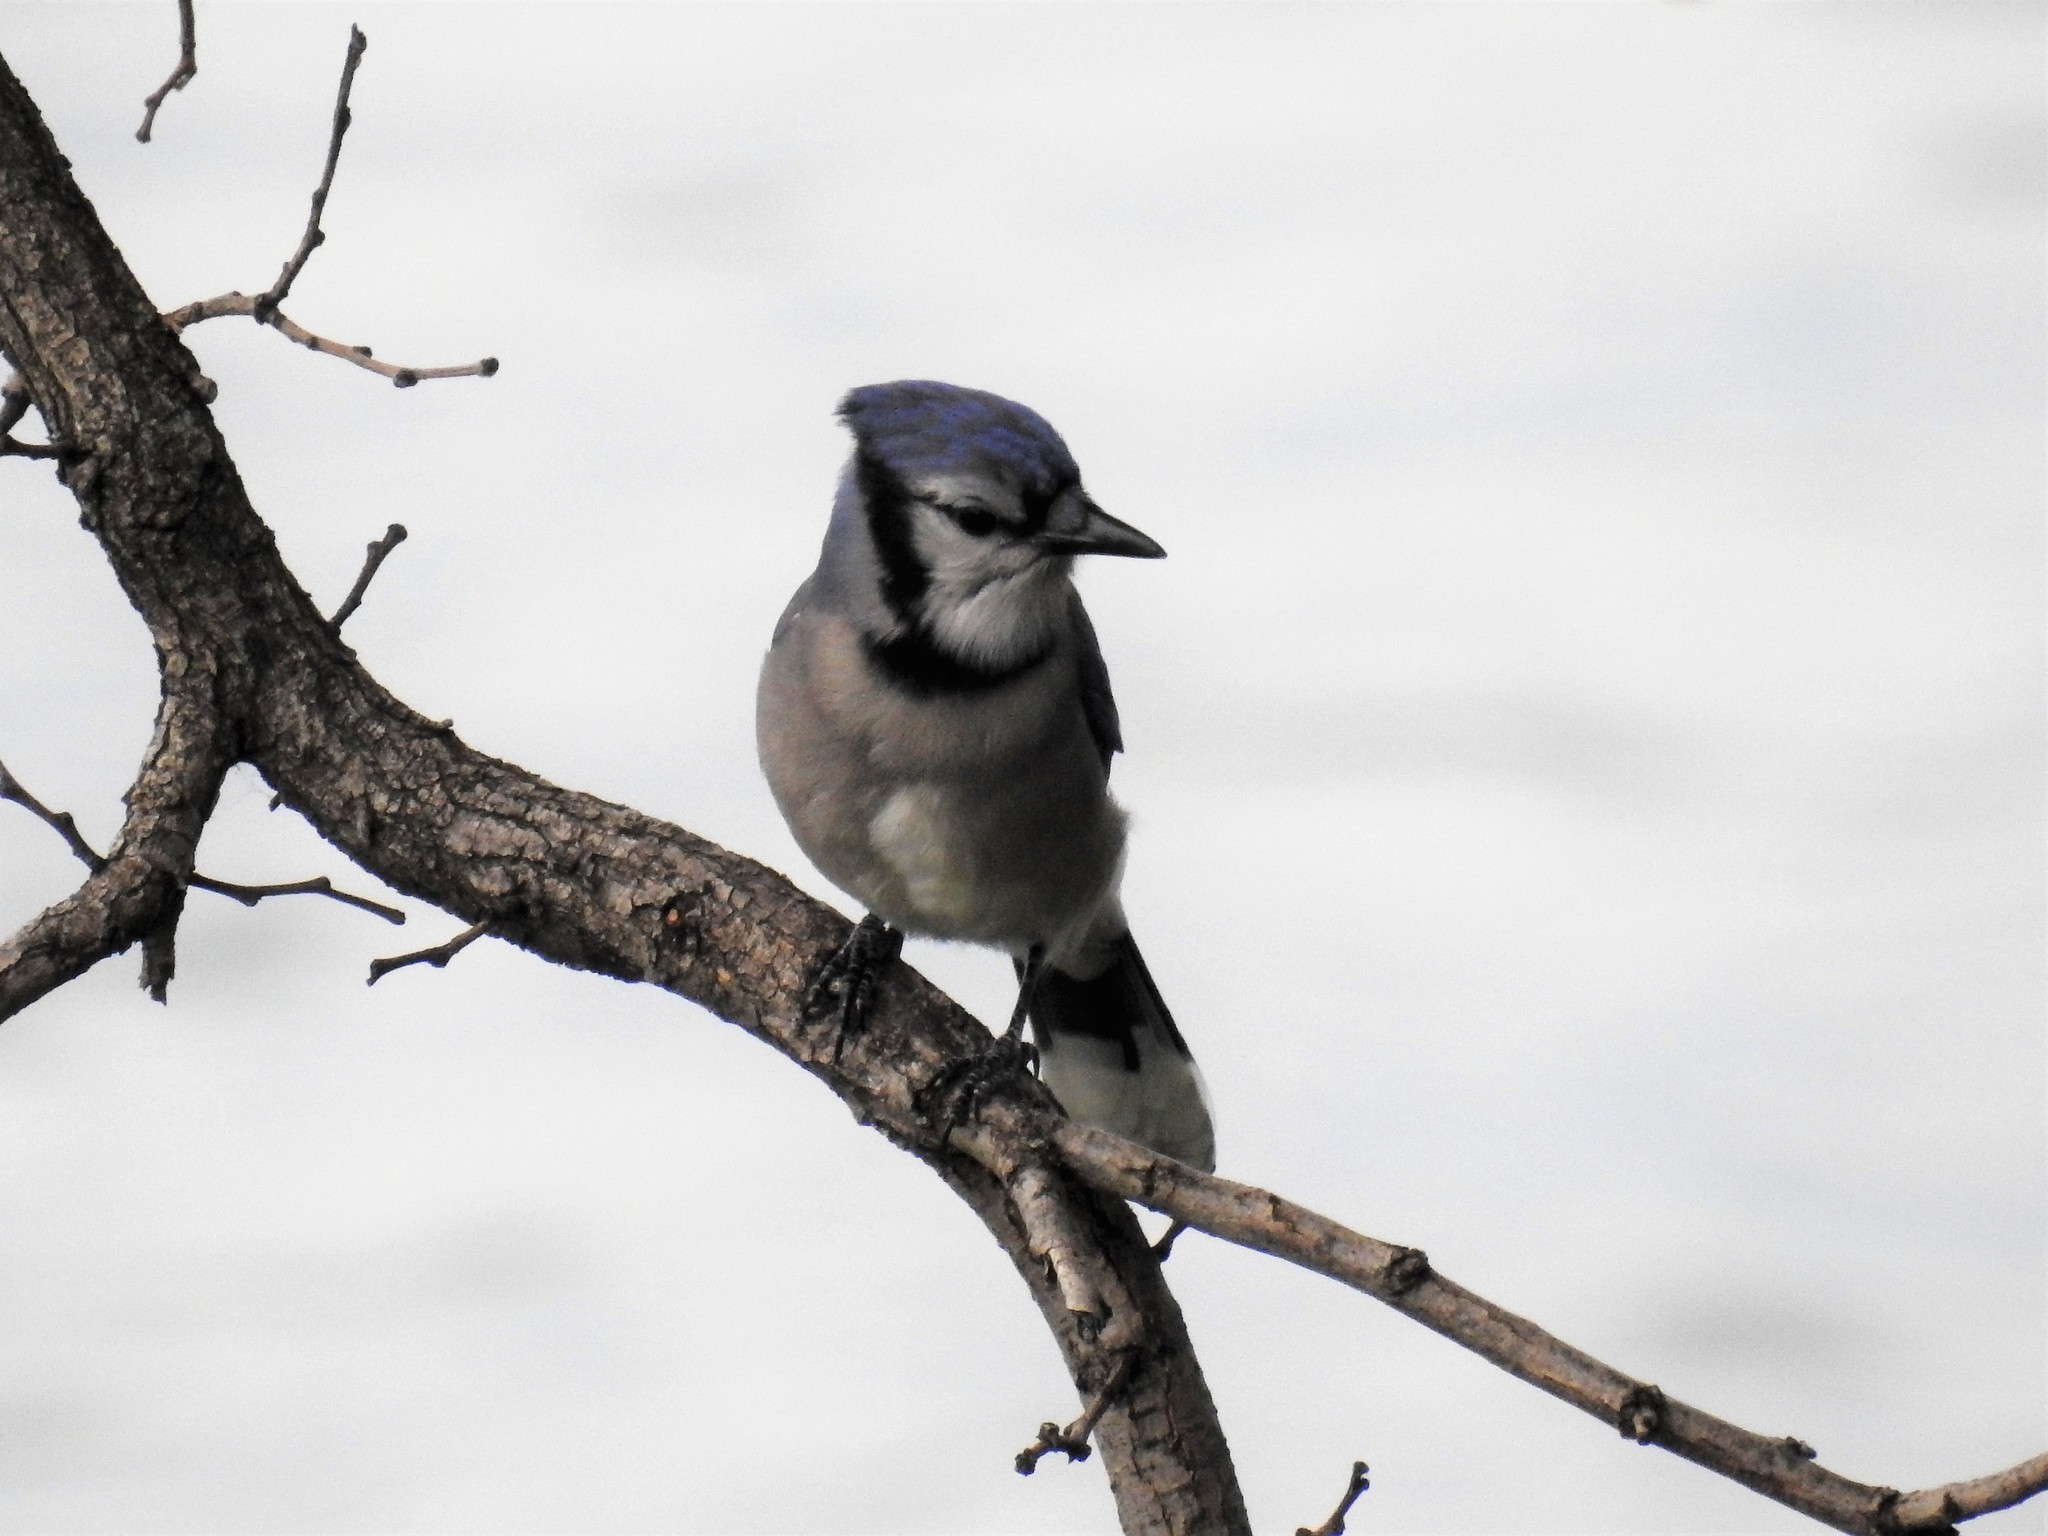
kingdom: Animalia
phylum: Chordata
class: Aves
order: Passeriformes
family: Corvidae
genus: Cyanocitta
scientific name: Cyanocitta cristata
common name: Blue jay
